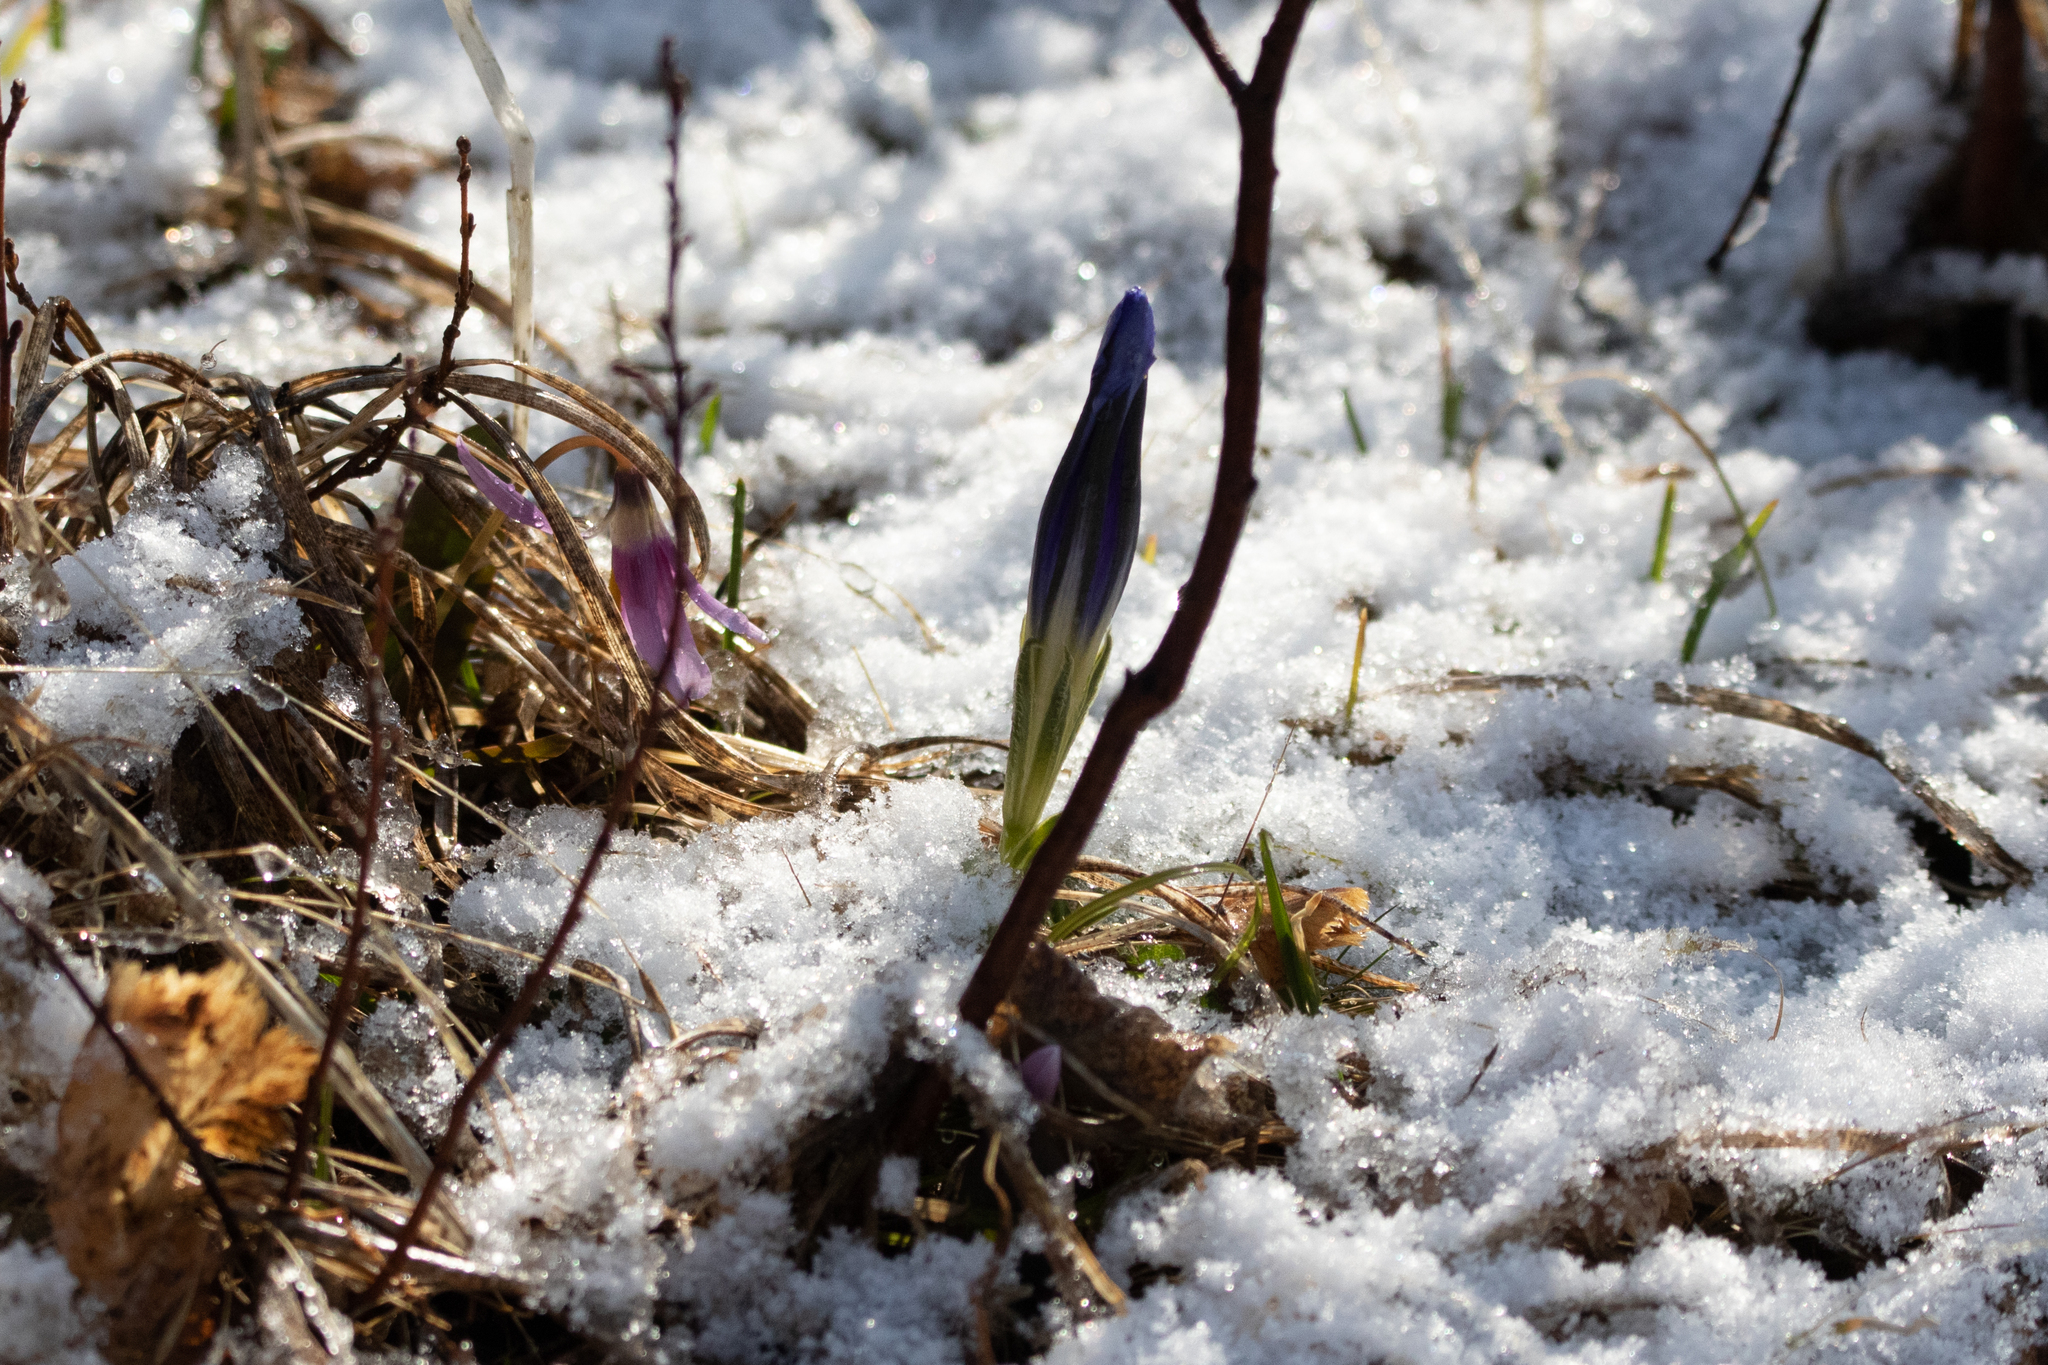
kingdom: Plantae
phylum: Tracheophyta
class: Magnoliopsida
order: Gentianales
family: Gentianaceae
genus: Gentiana
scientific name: Gentiana grandiflora
